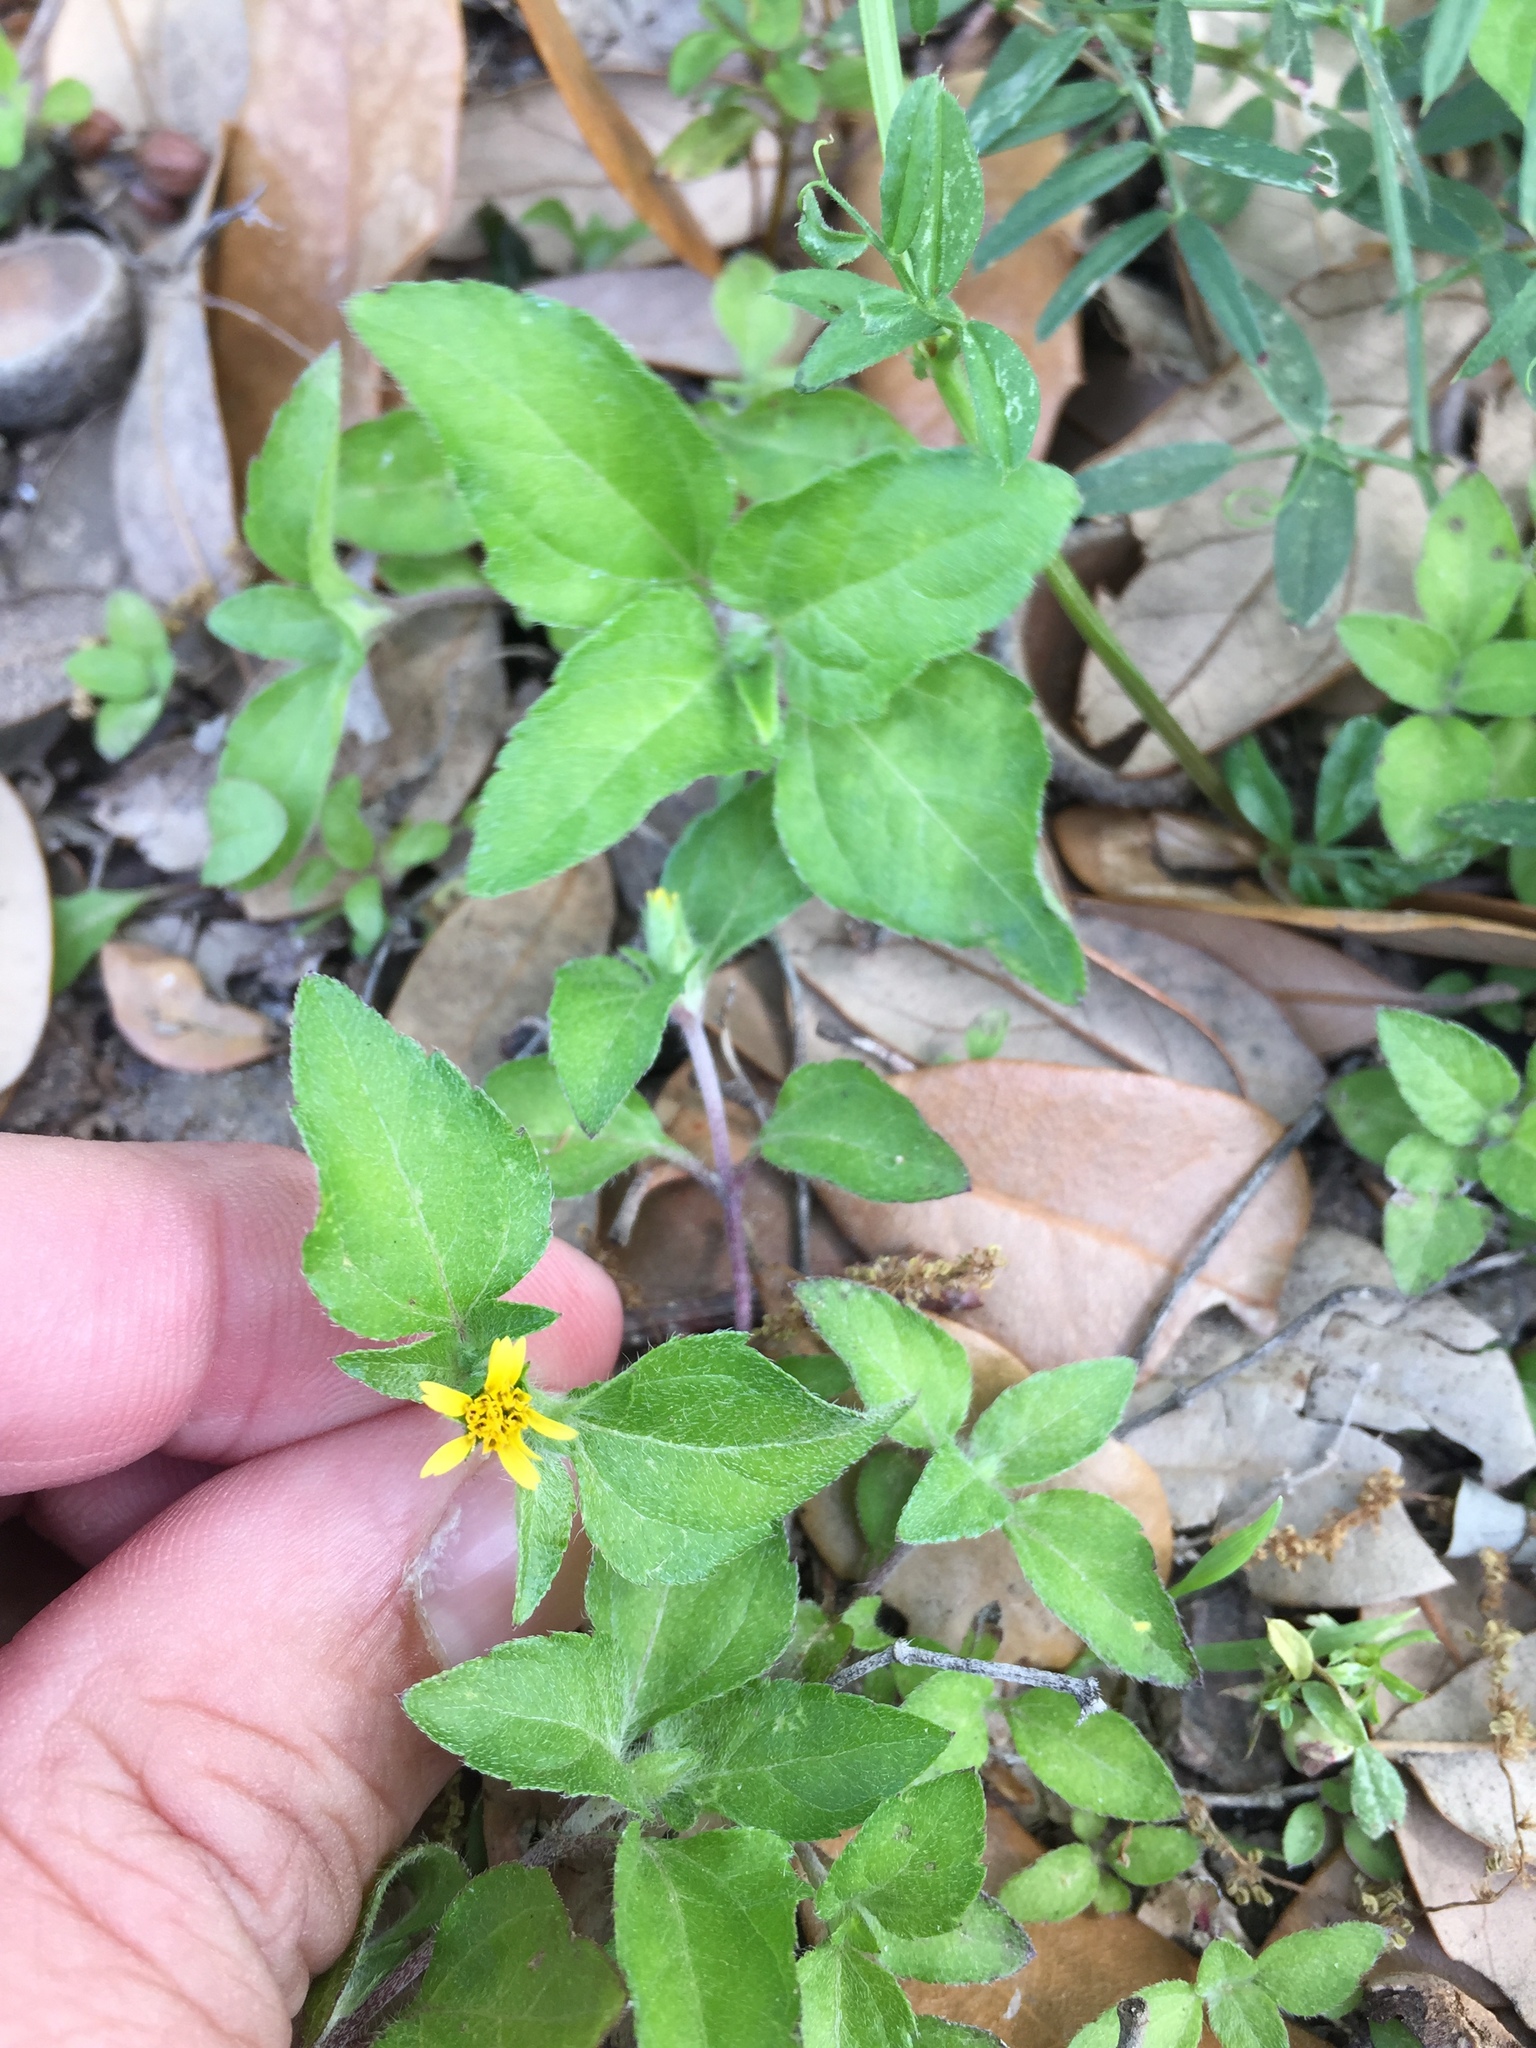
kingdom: Plantae
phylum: Tracheophyta
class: Magnoliopsida
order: Asterales
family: Asteraceae
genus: Calyptocarpus
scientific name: Calyptocarpus vialis
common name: Straggler daisy
